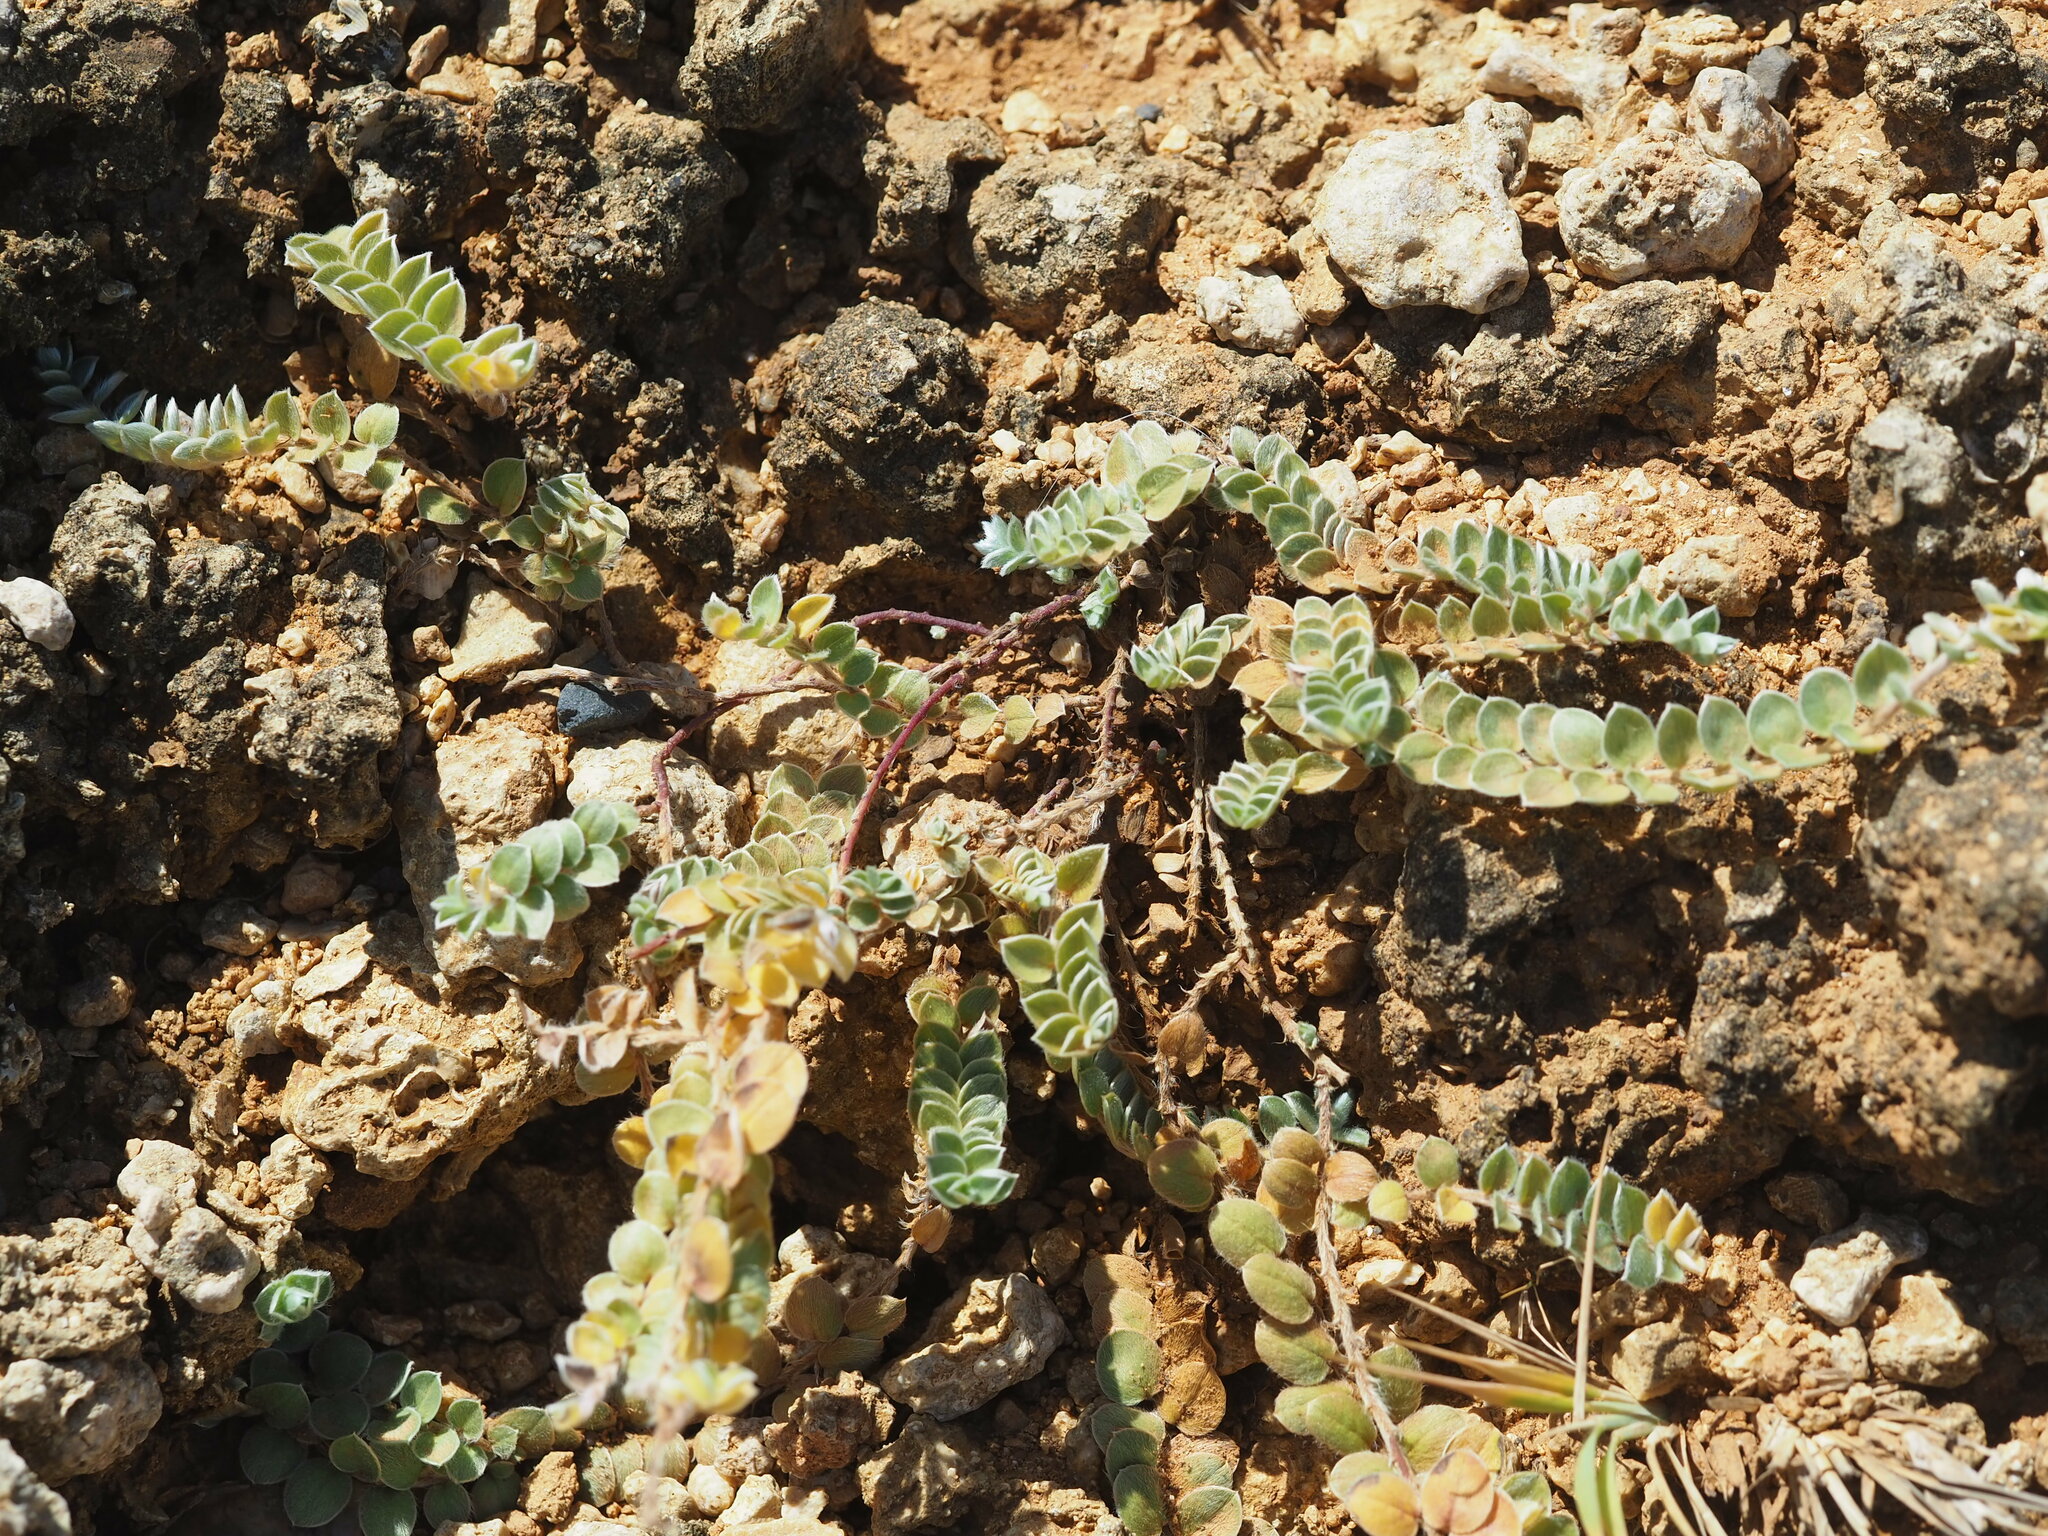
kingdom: Plantae
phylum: Tracheophyta
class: Magnoliopsida
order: Solanales
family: Convolvulaceae
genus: Evolvulus
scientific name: Evolvulus alsinoides
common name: Slender dwarf morning-glory
